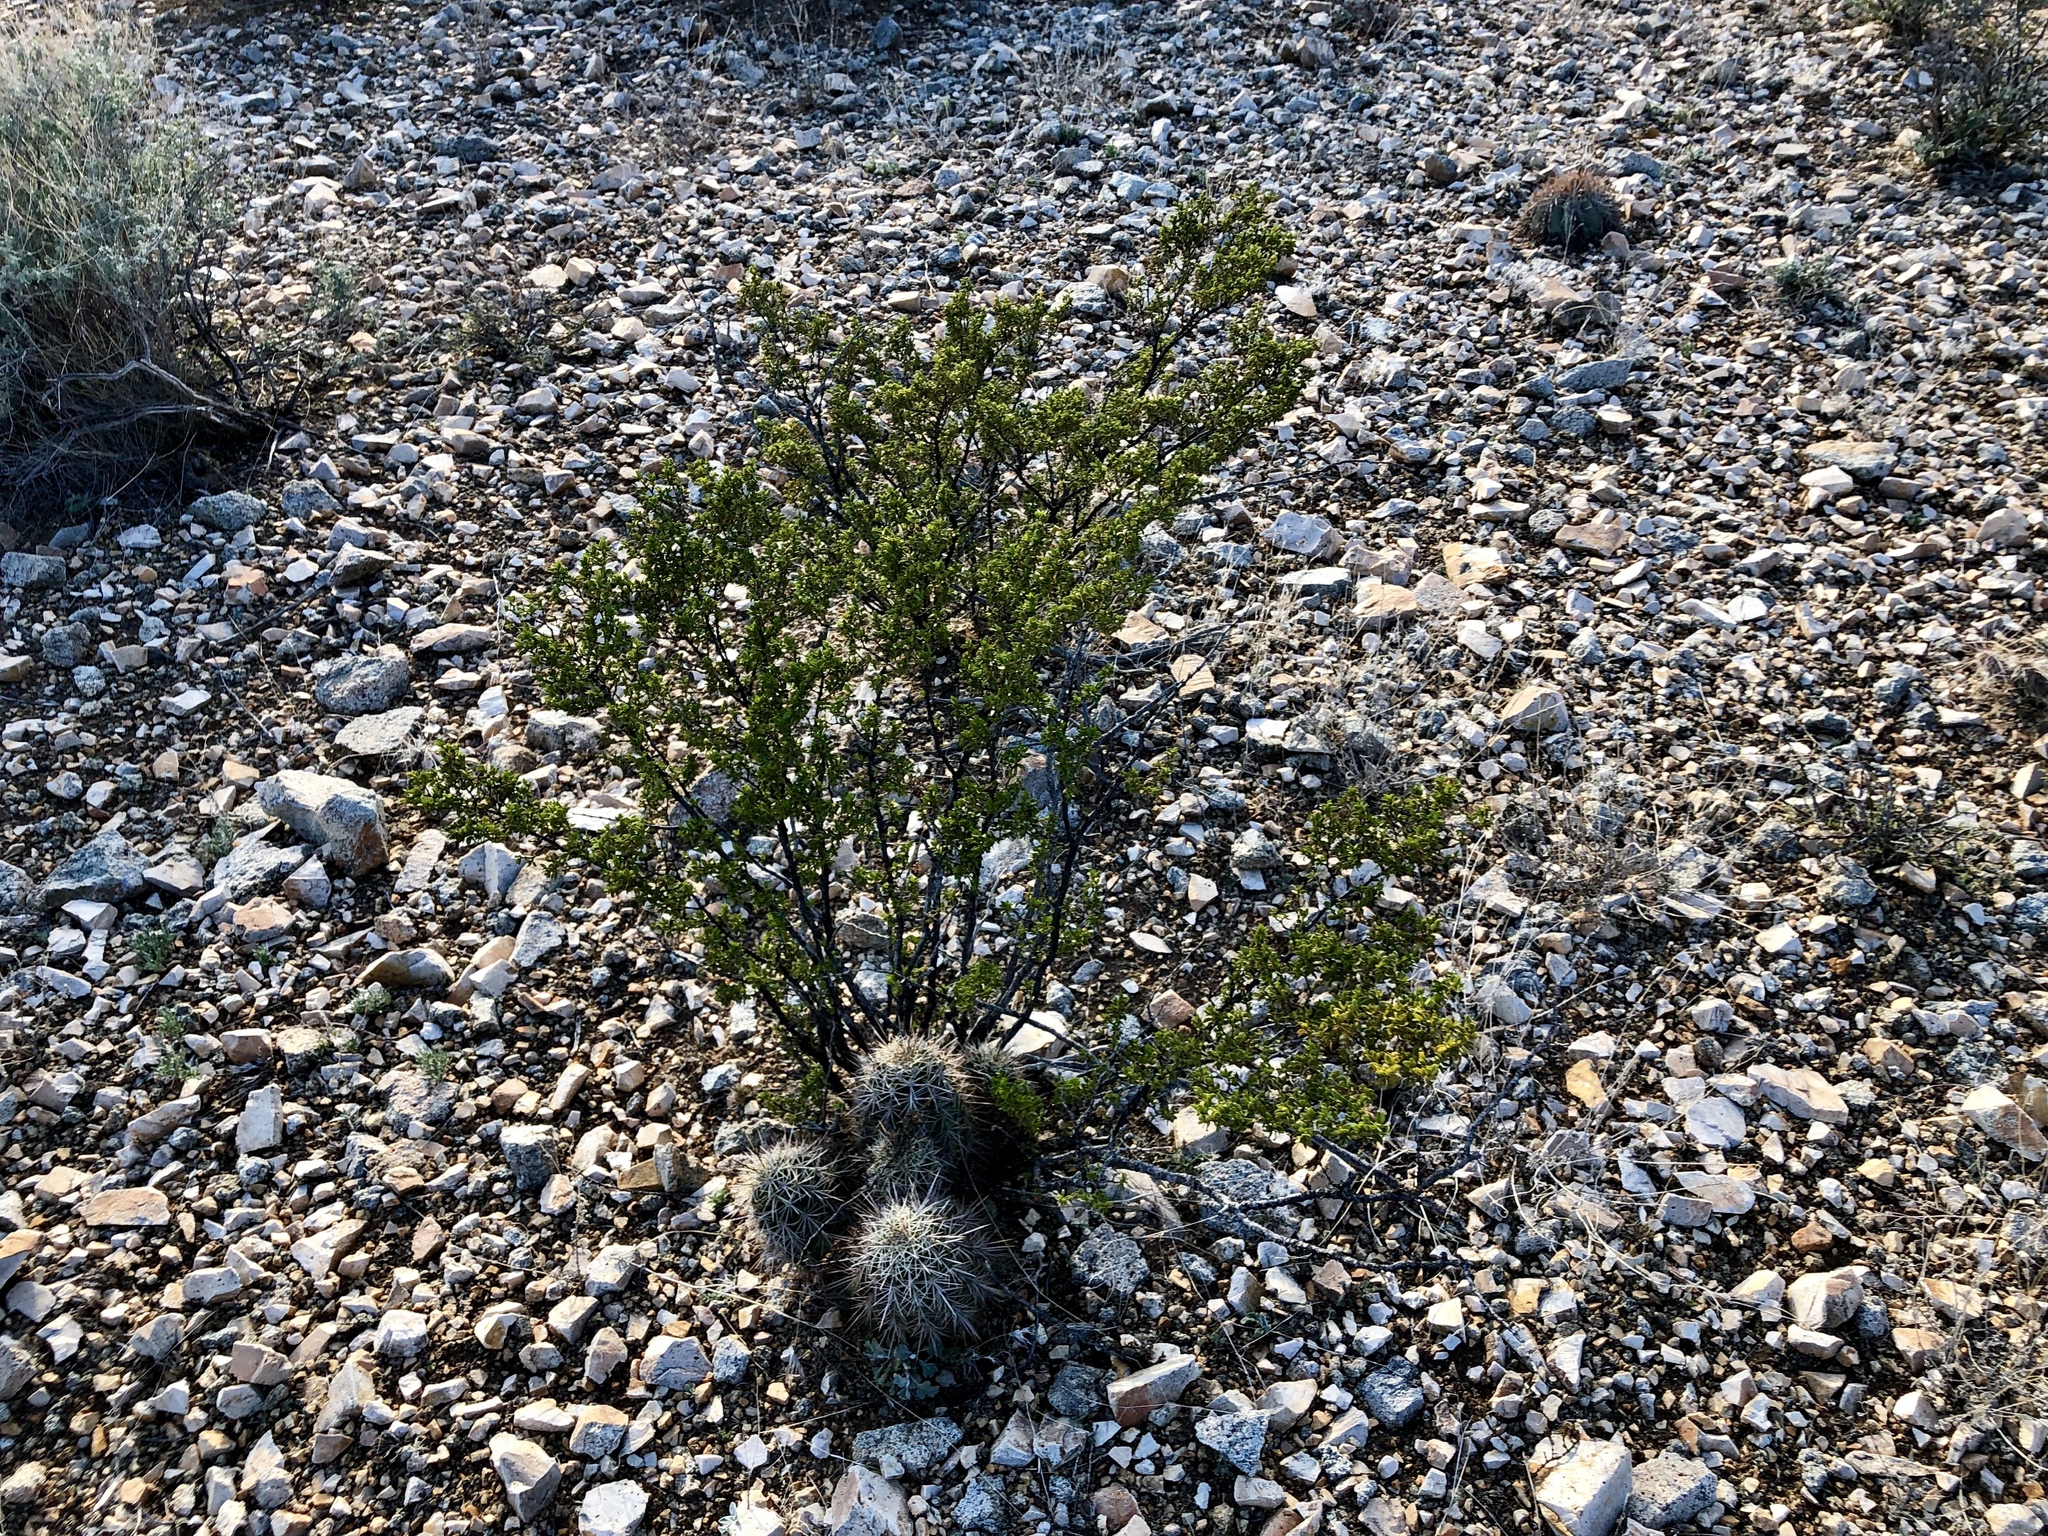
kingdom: Plantae
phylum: Tracheophyta
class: Magnoliopsida
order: Caryophyllales
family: Cactaceae
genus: Echinocereus
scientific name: Echinocereus coccineus
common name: Scarlet hedgehog cactus
